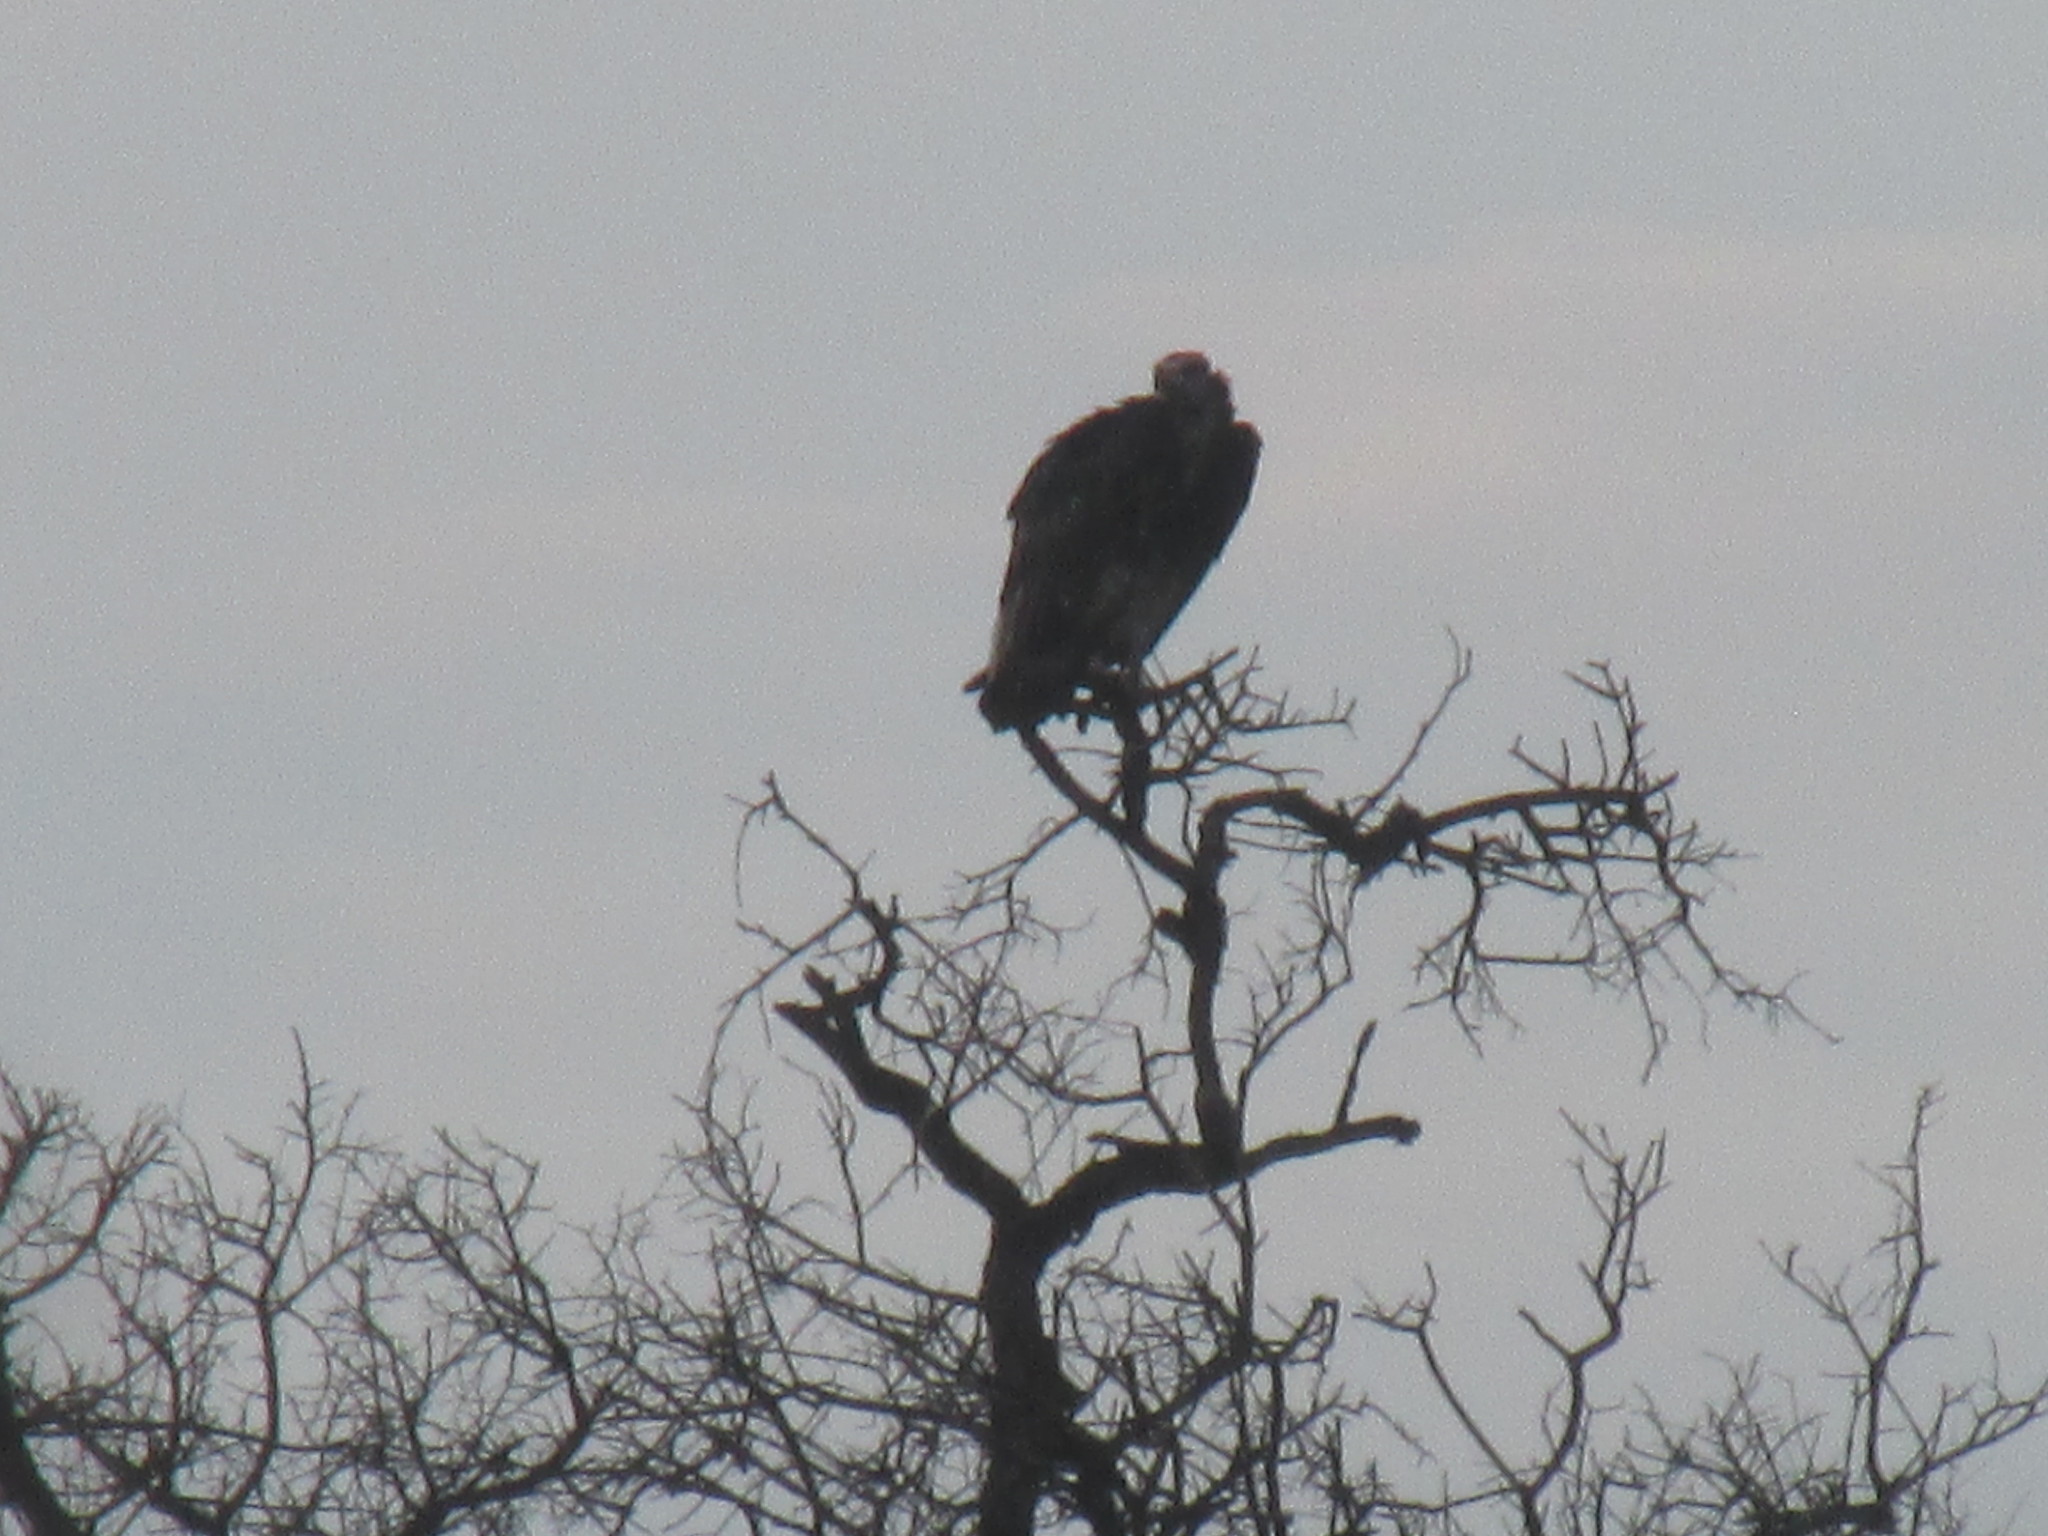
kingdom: Animalia
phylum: Chordata
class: Aves
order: Accipitriformes
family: Accipitridae
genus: Trigonoceps
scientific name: Trigonoceps occipitalis
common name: White-headed vulture
